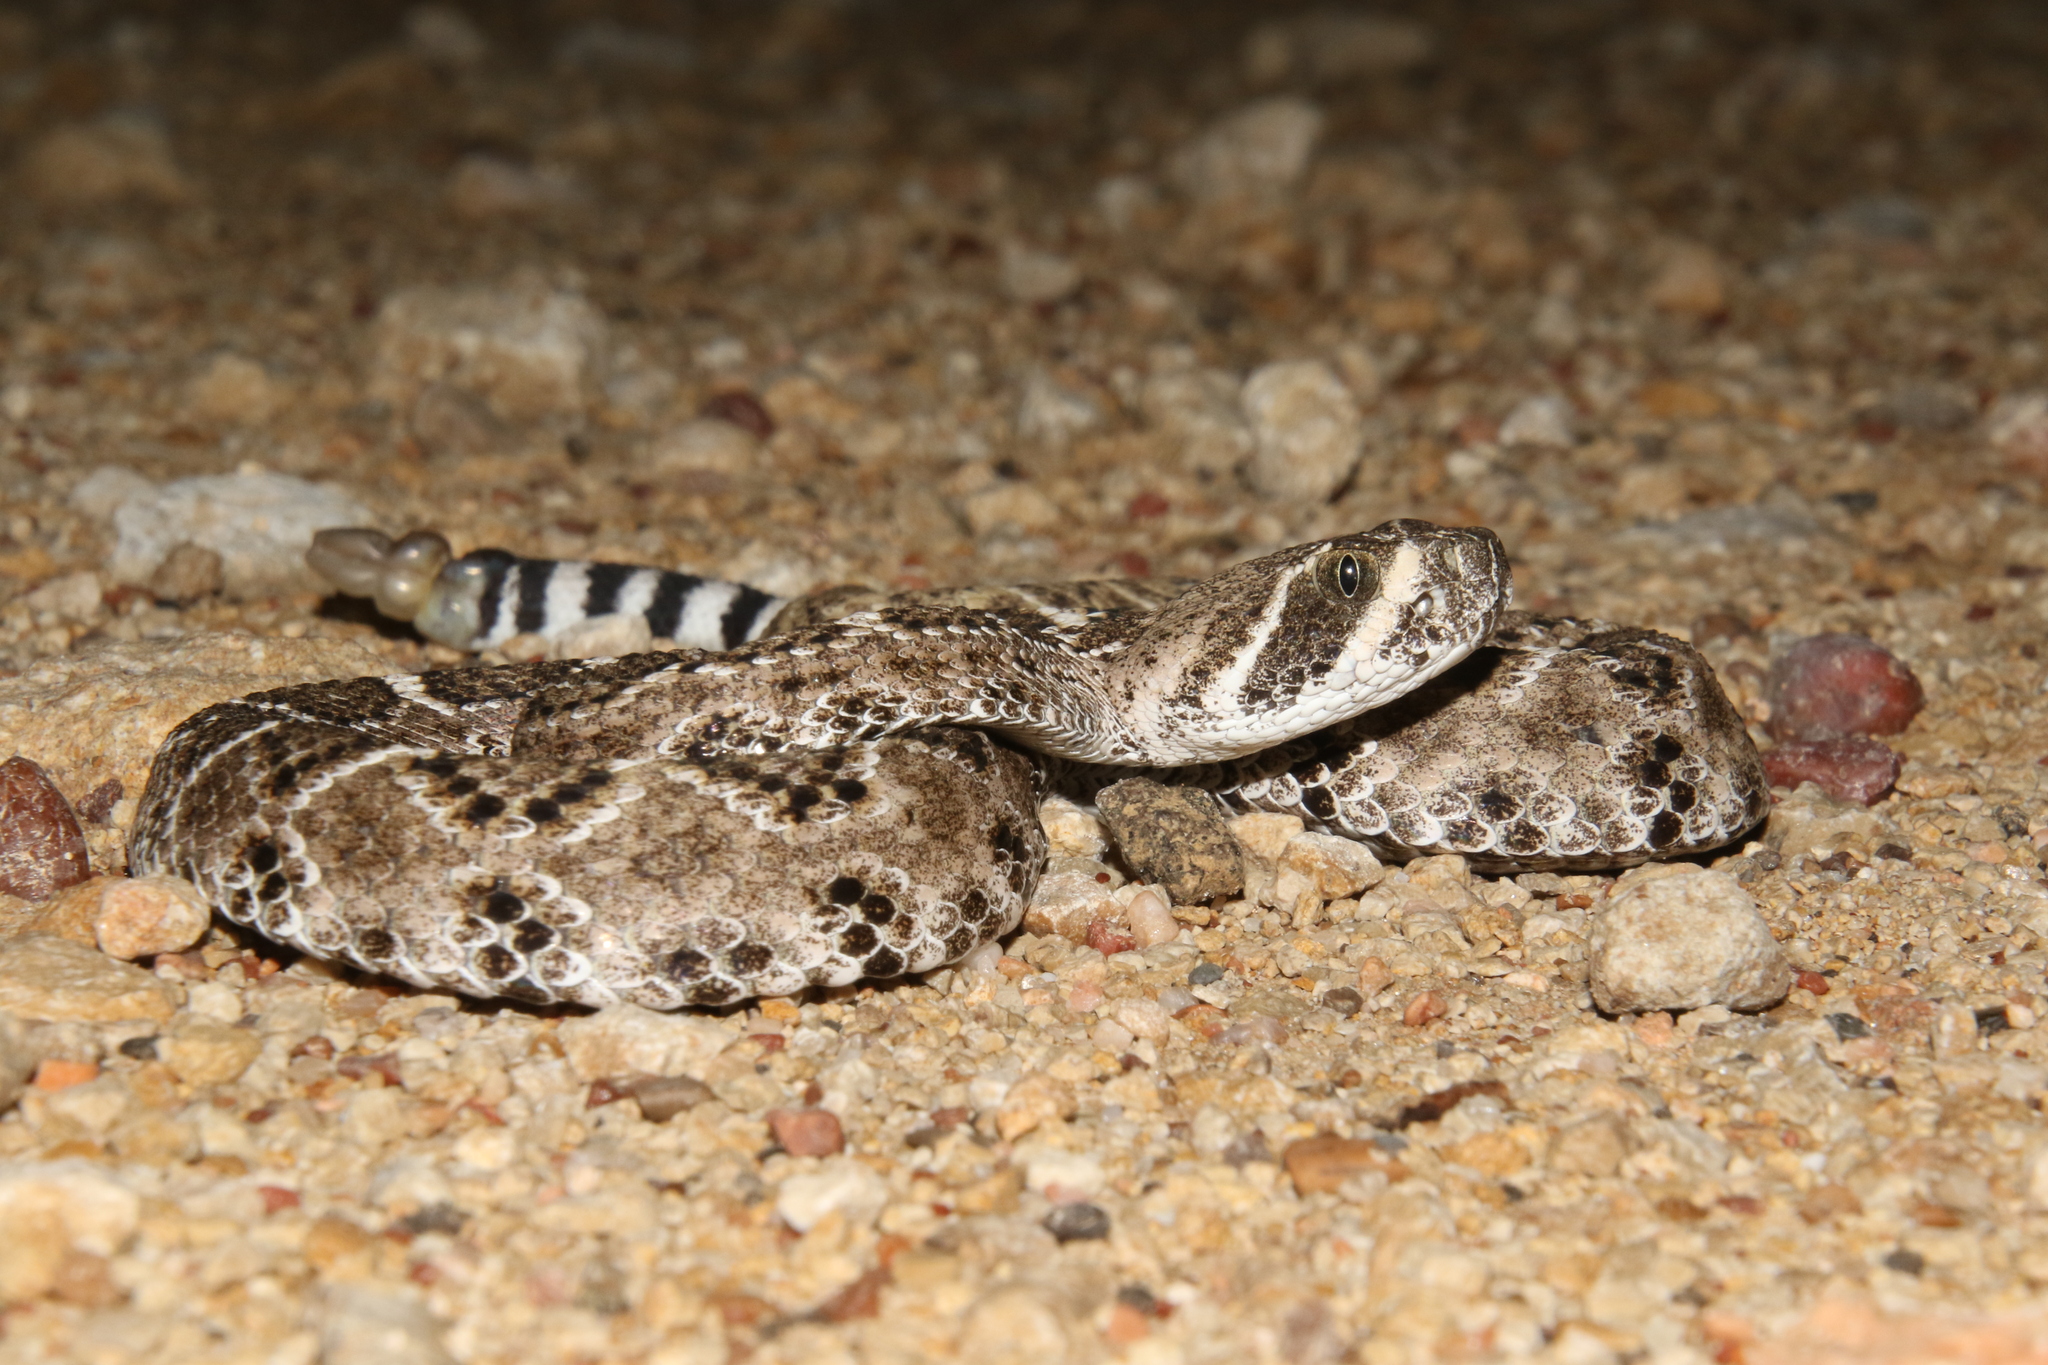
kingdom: Animalia
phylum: Chordata
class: Squamata
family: Viperidae
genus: Crotalus
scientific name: Crotalus atrox
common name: Western diamond-backed rattlesnake
